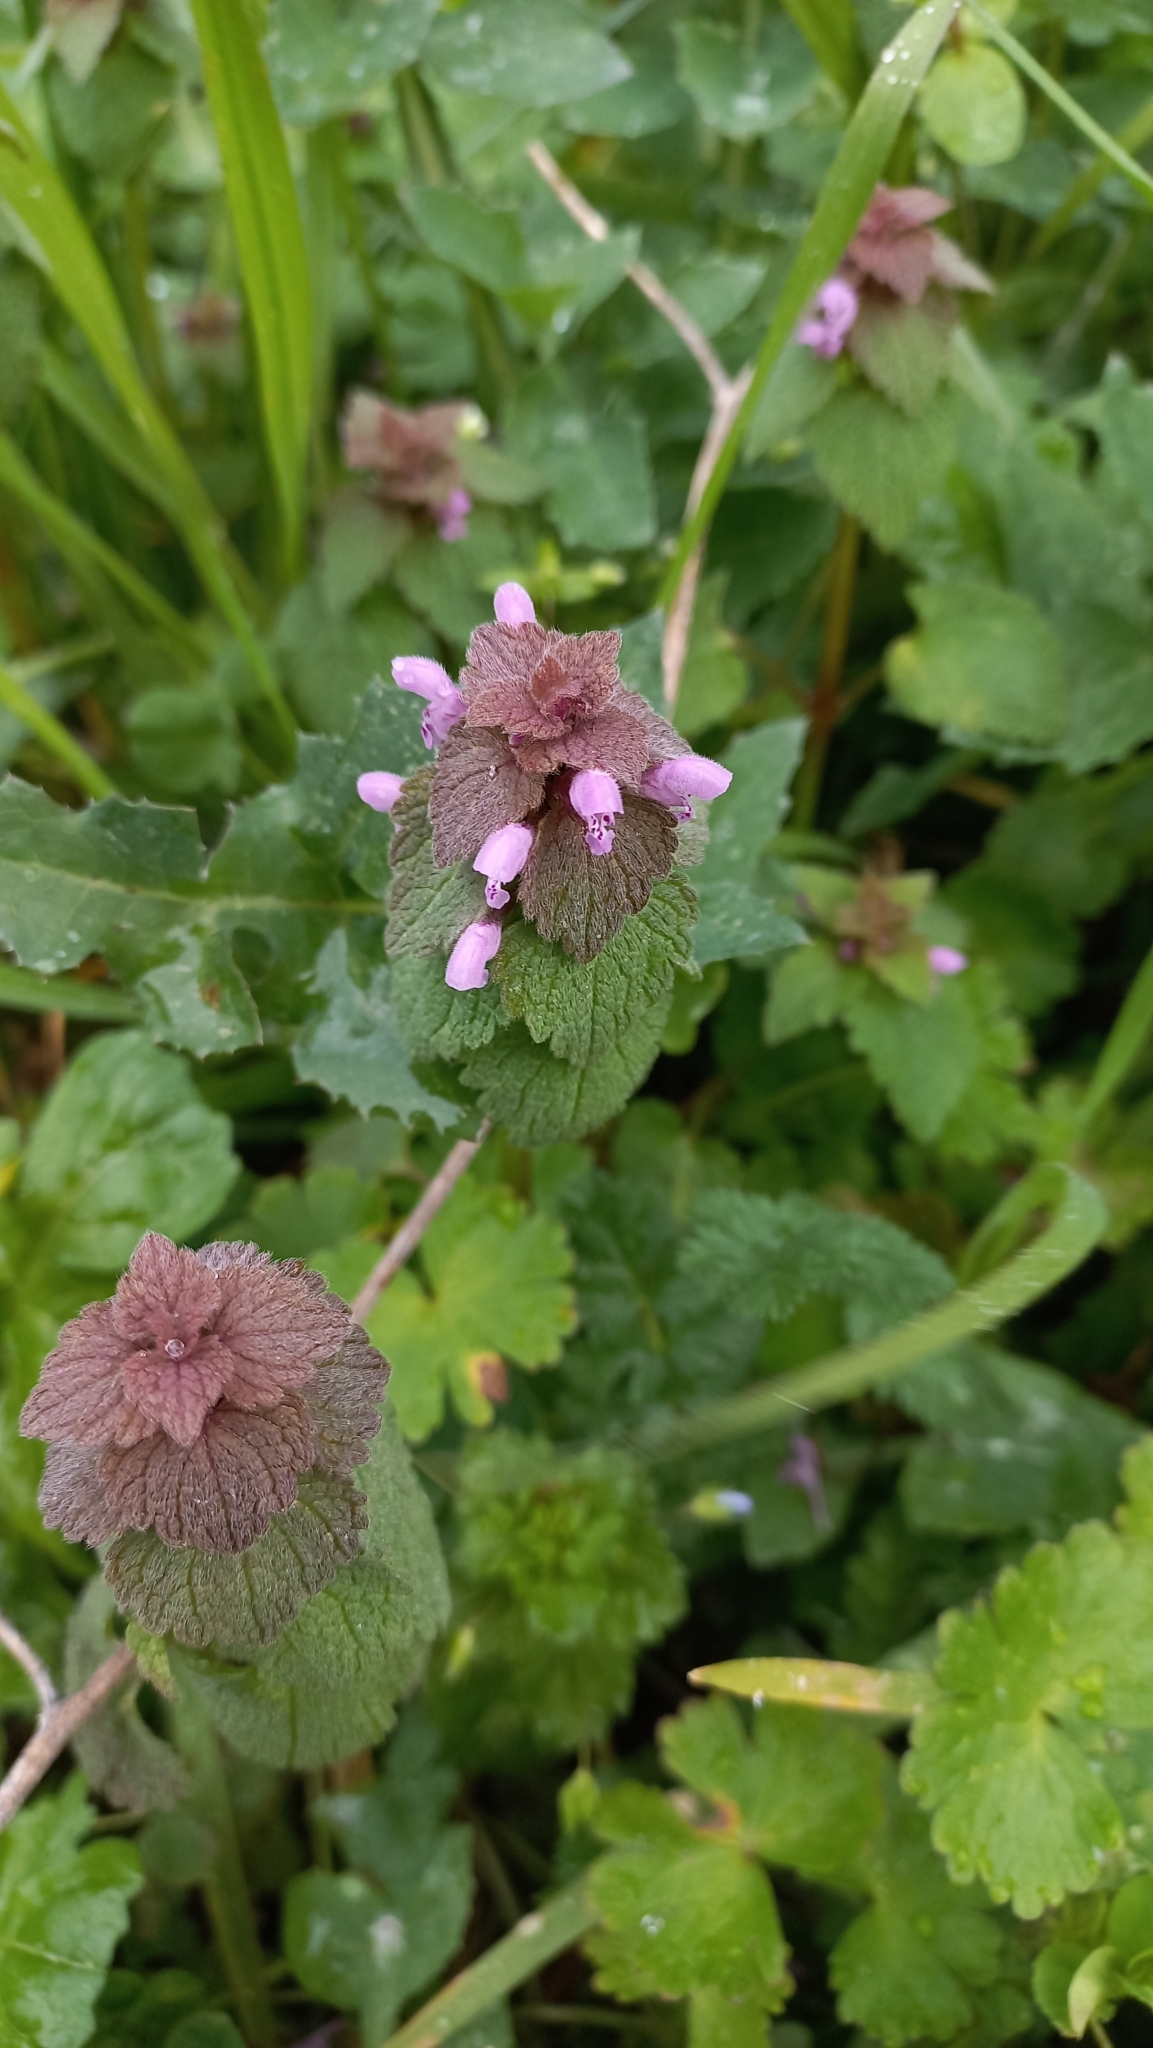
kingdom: Plantae
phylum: Tracheophyta
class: Magnoliopsida
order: Lamiales
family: Lamiaceae
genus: Lamium
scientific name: Lamium purpureum
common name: Red dead-nettle
